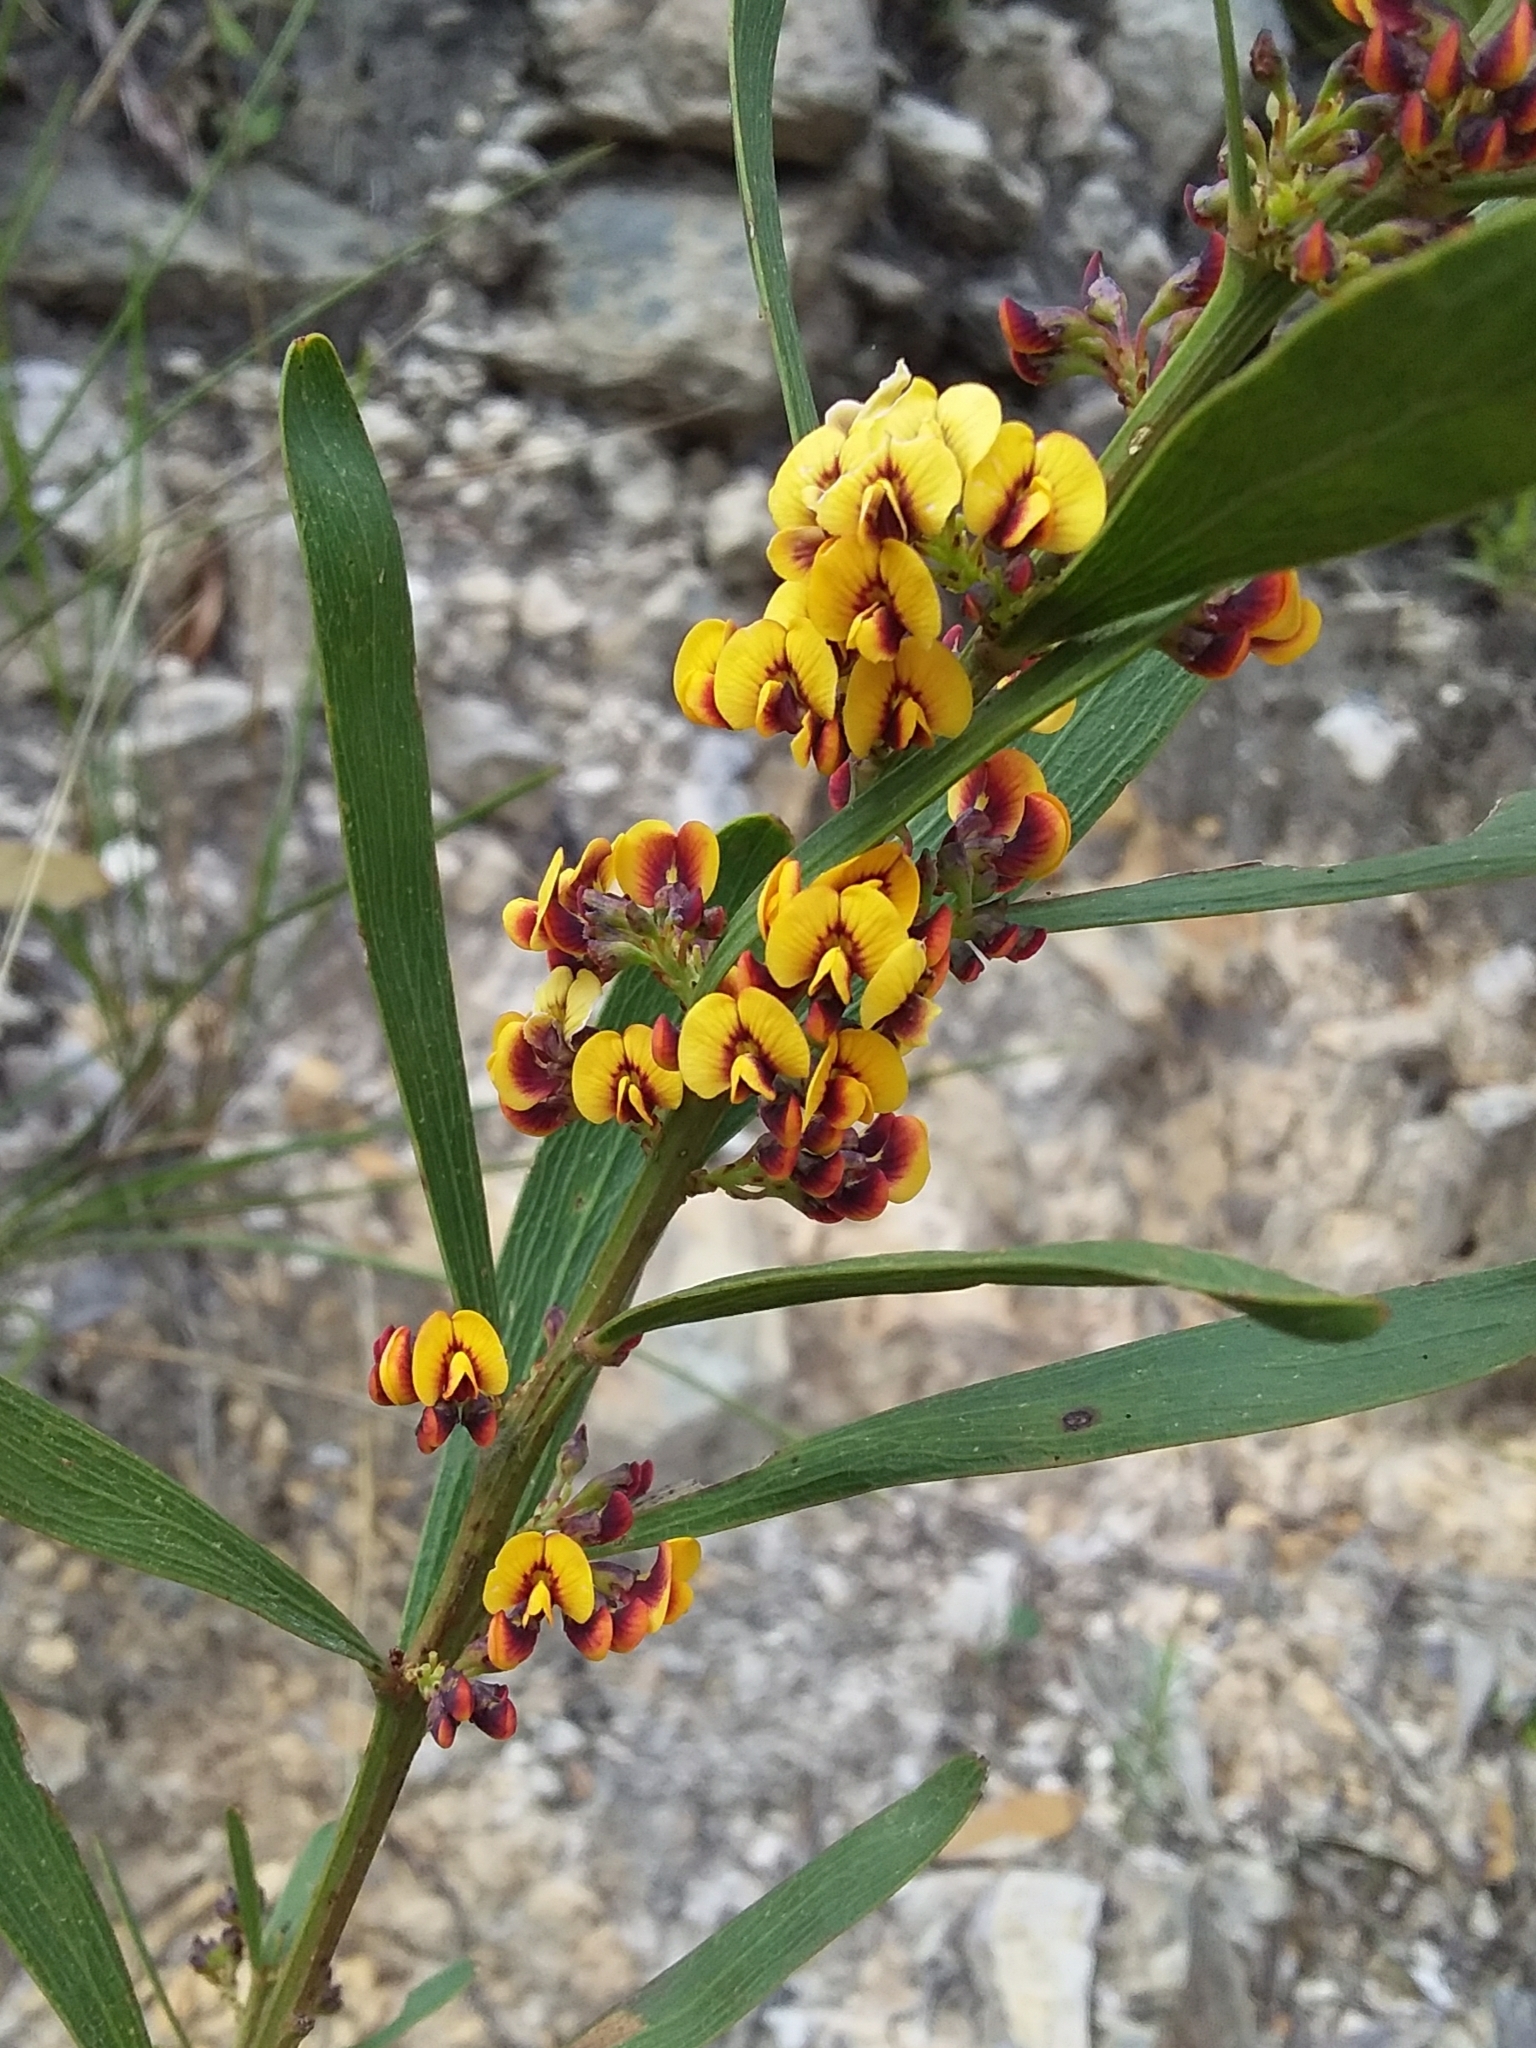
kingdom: Plantae
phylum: Tracheophyta
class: Magnoliopsida
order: Fabales
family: Fabaceae
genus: Daviesia
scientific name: Daviesia leptophylla
